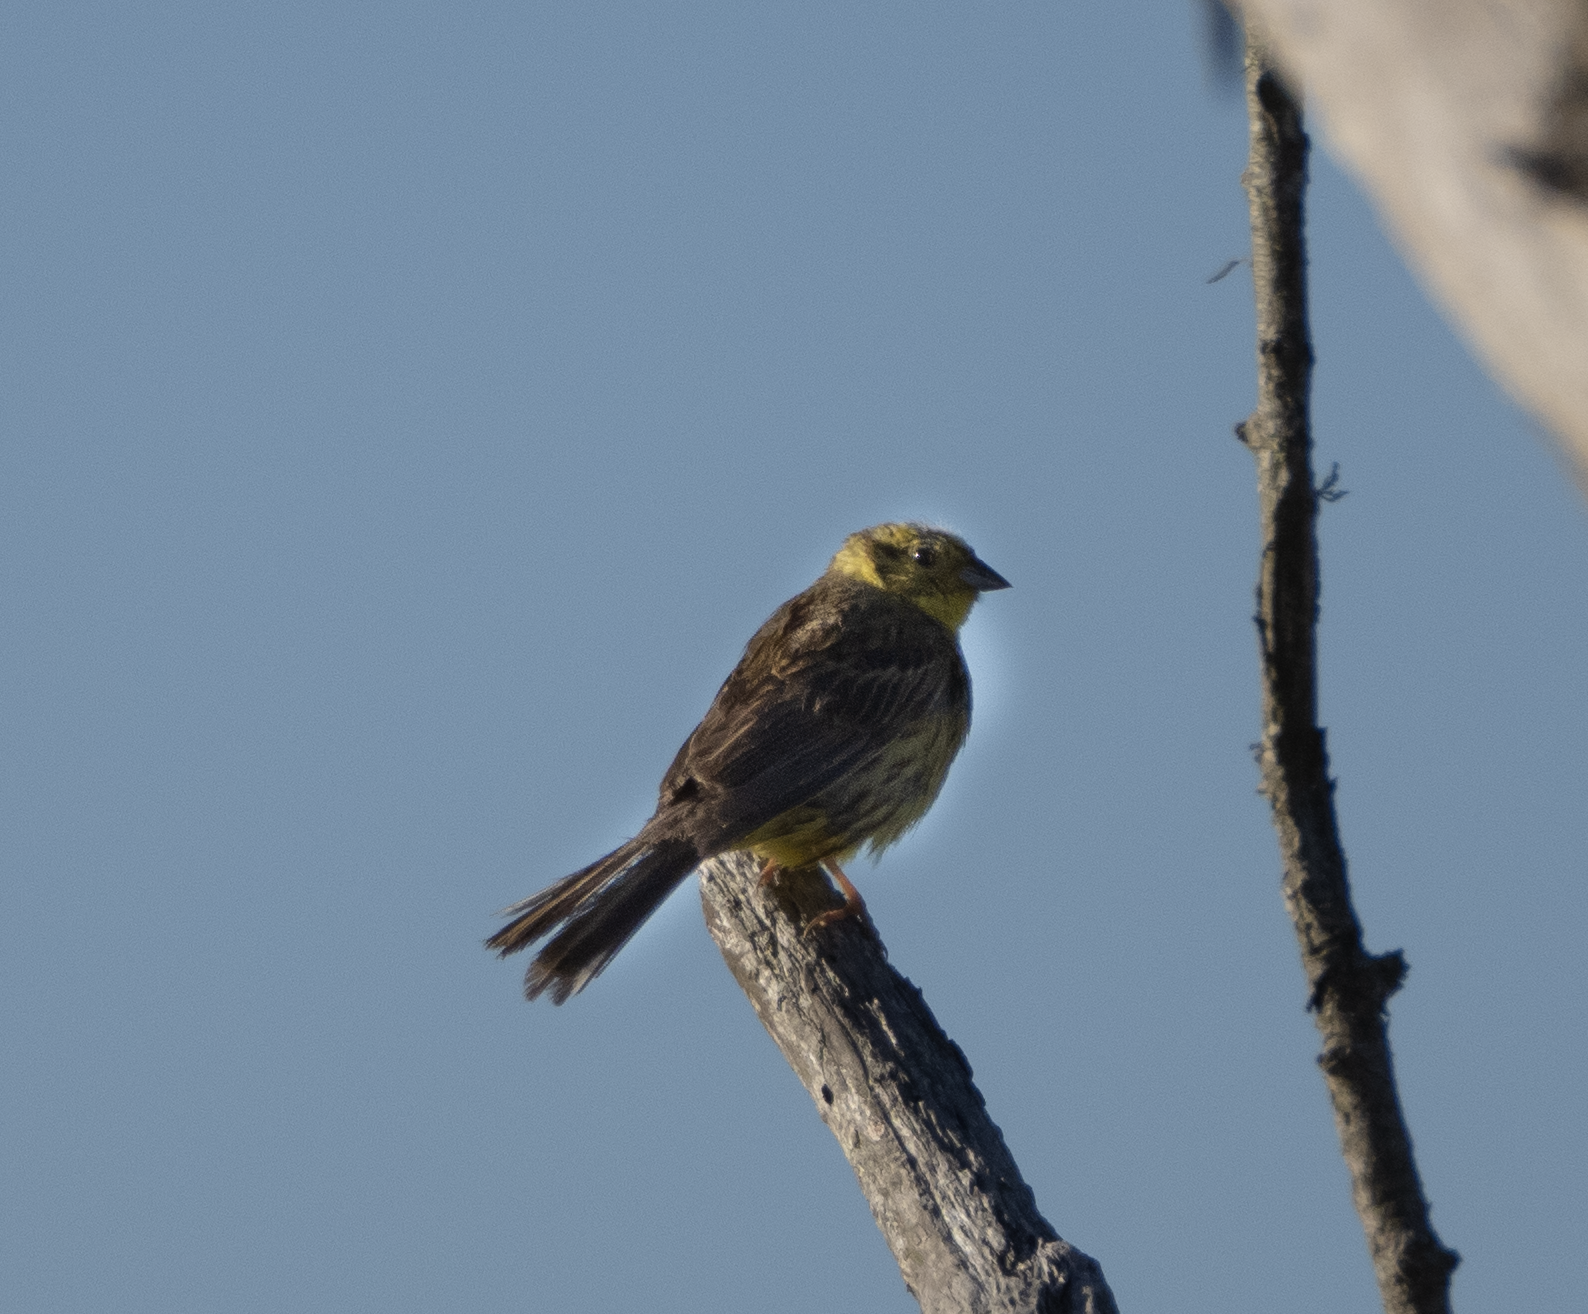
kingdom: Animalia
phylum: Chordata
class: Aves
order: Passeriformes
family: Emberizidae
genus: Emberiza
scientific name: Emberiza citrinella
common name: Yellowhammer
